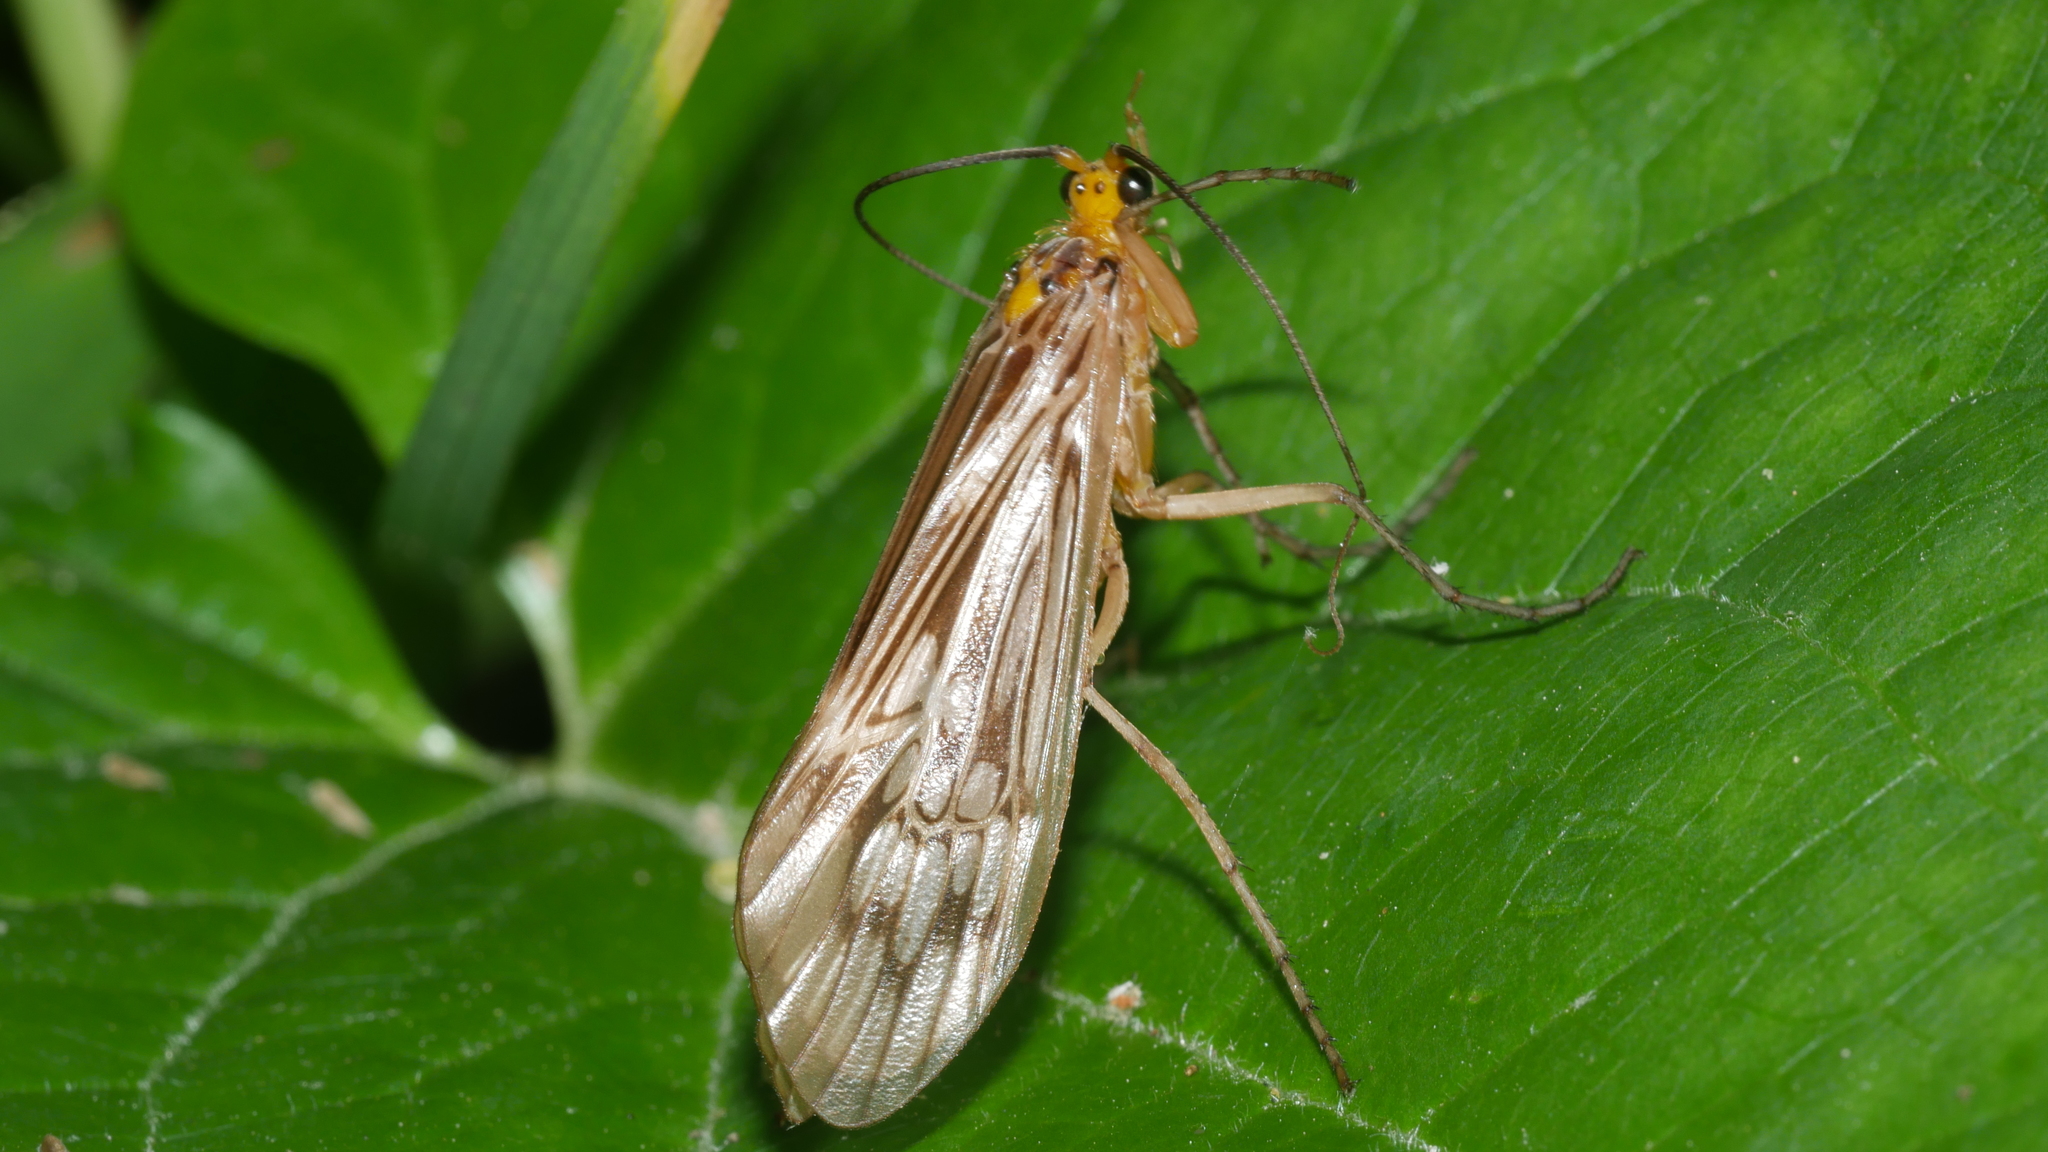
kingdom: Animalia
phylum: Arthropoda
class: Insecta
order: Trichoptera
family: Limnephilidae
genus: Hydatophylax
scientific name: Hydatophylax argus
